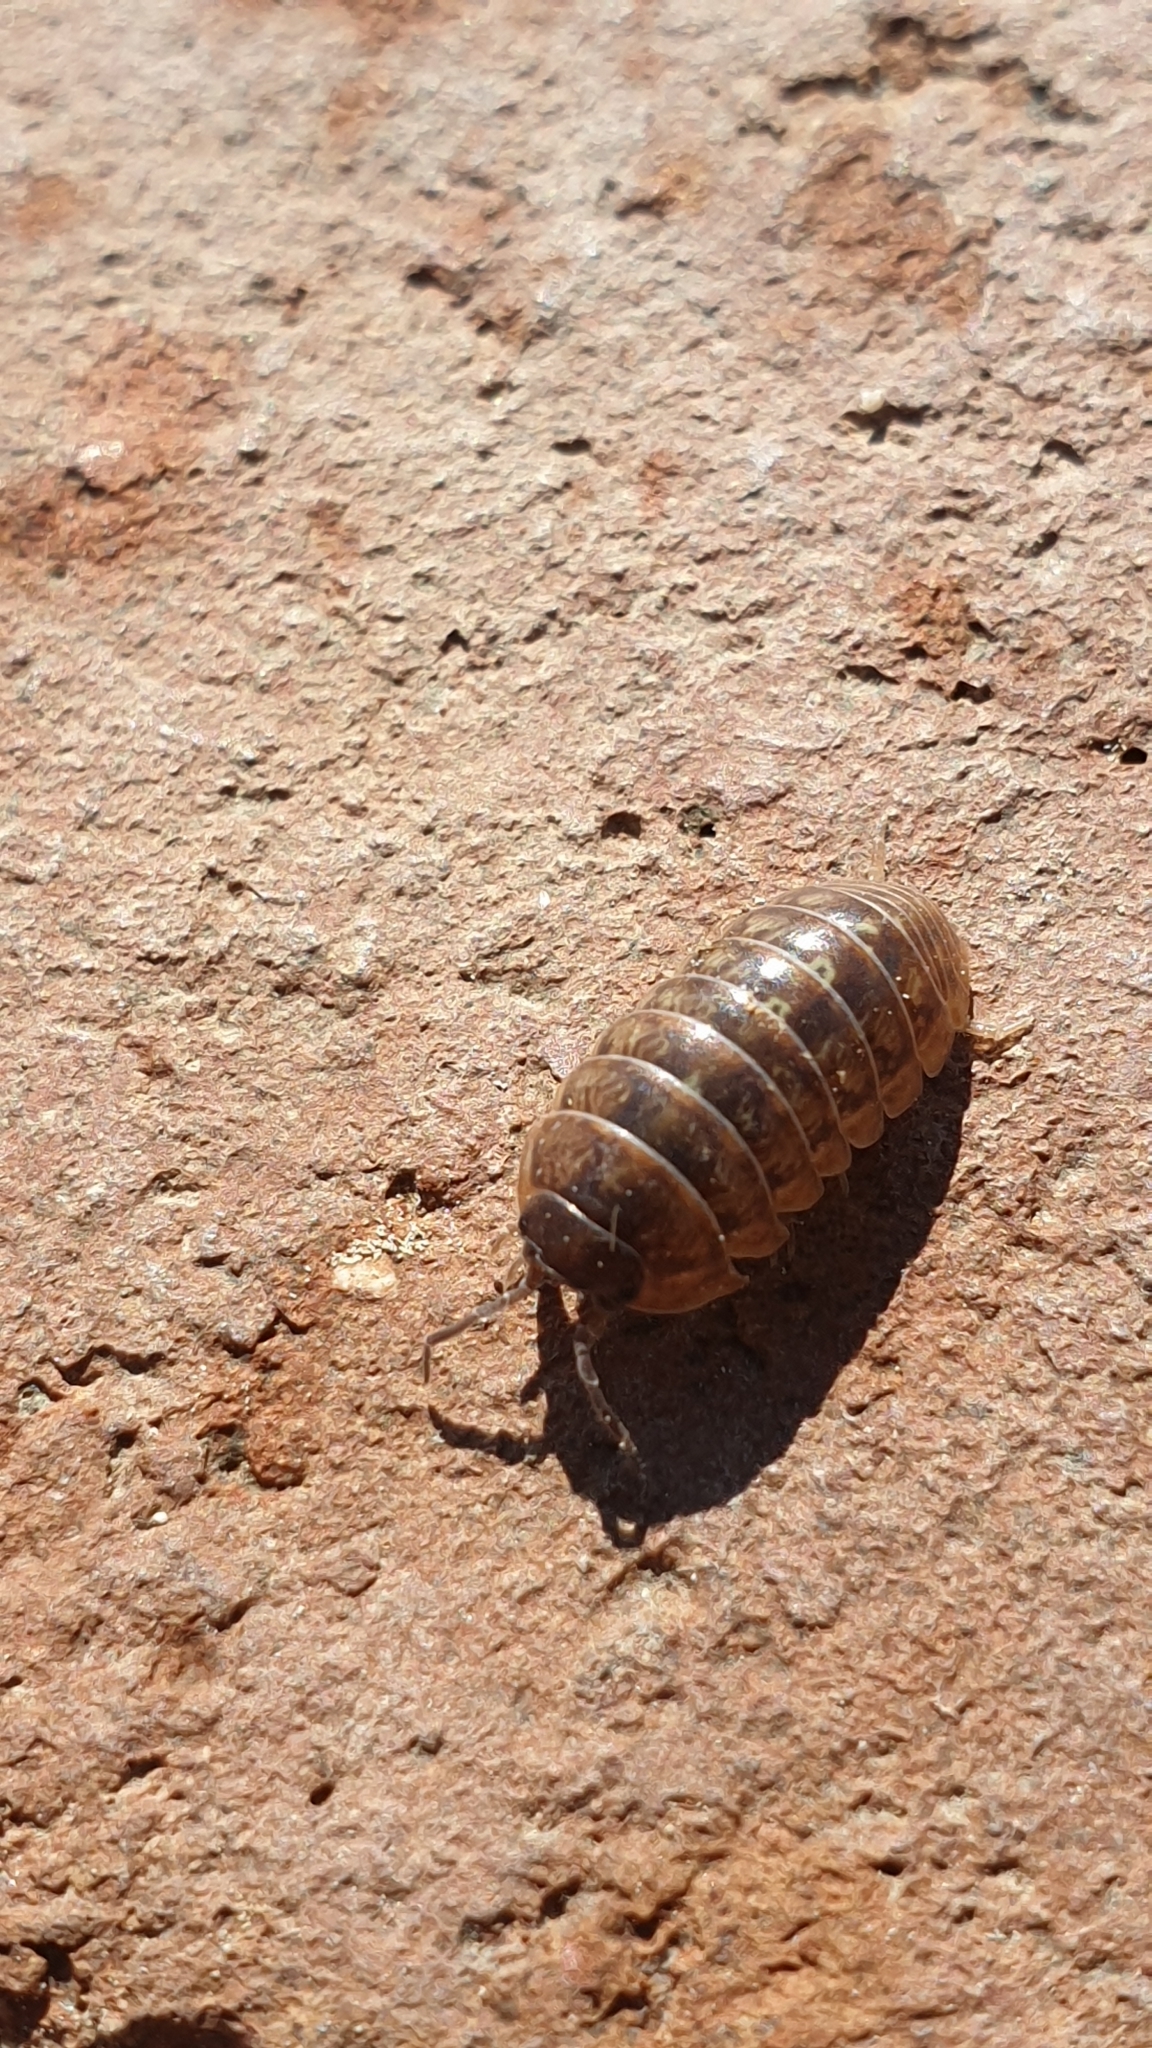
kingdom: Animalia
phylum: Arthropoda
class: Malacostraca
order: Isopoda
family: Armadillidiidae
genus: Armadillidium
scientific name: Armadillidium vulgare
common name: Common pill woodlouse
